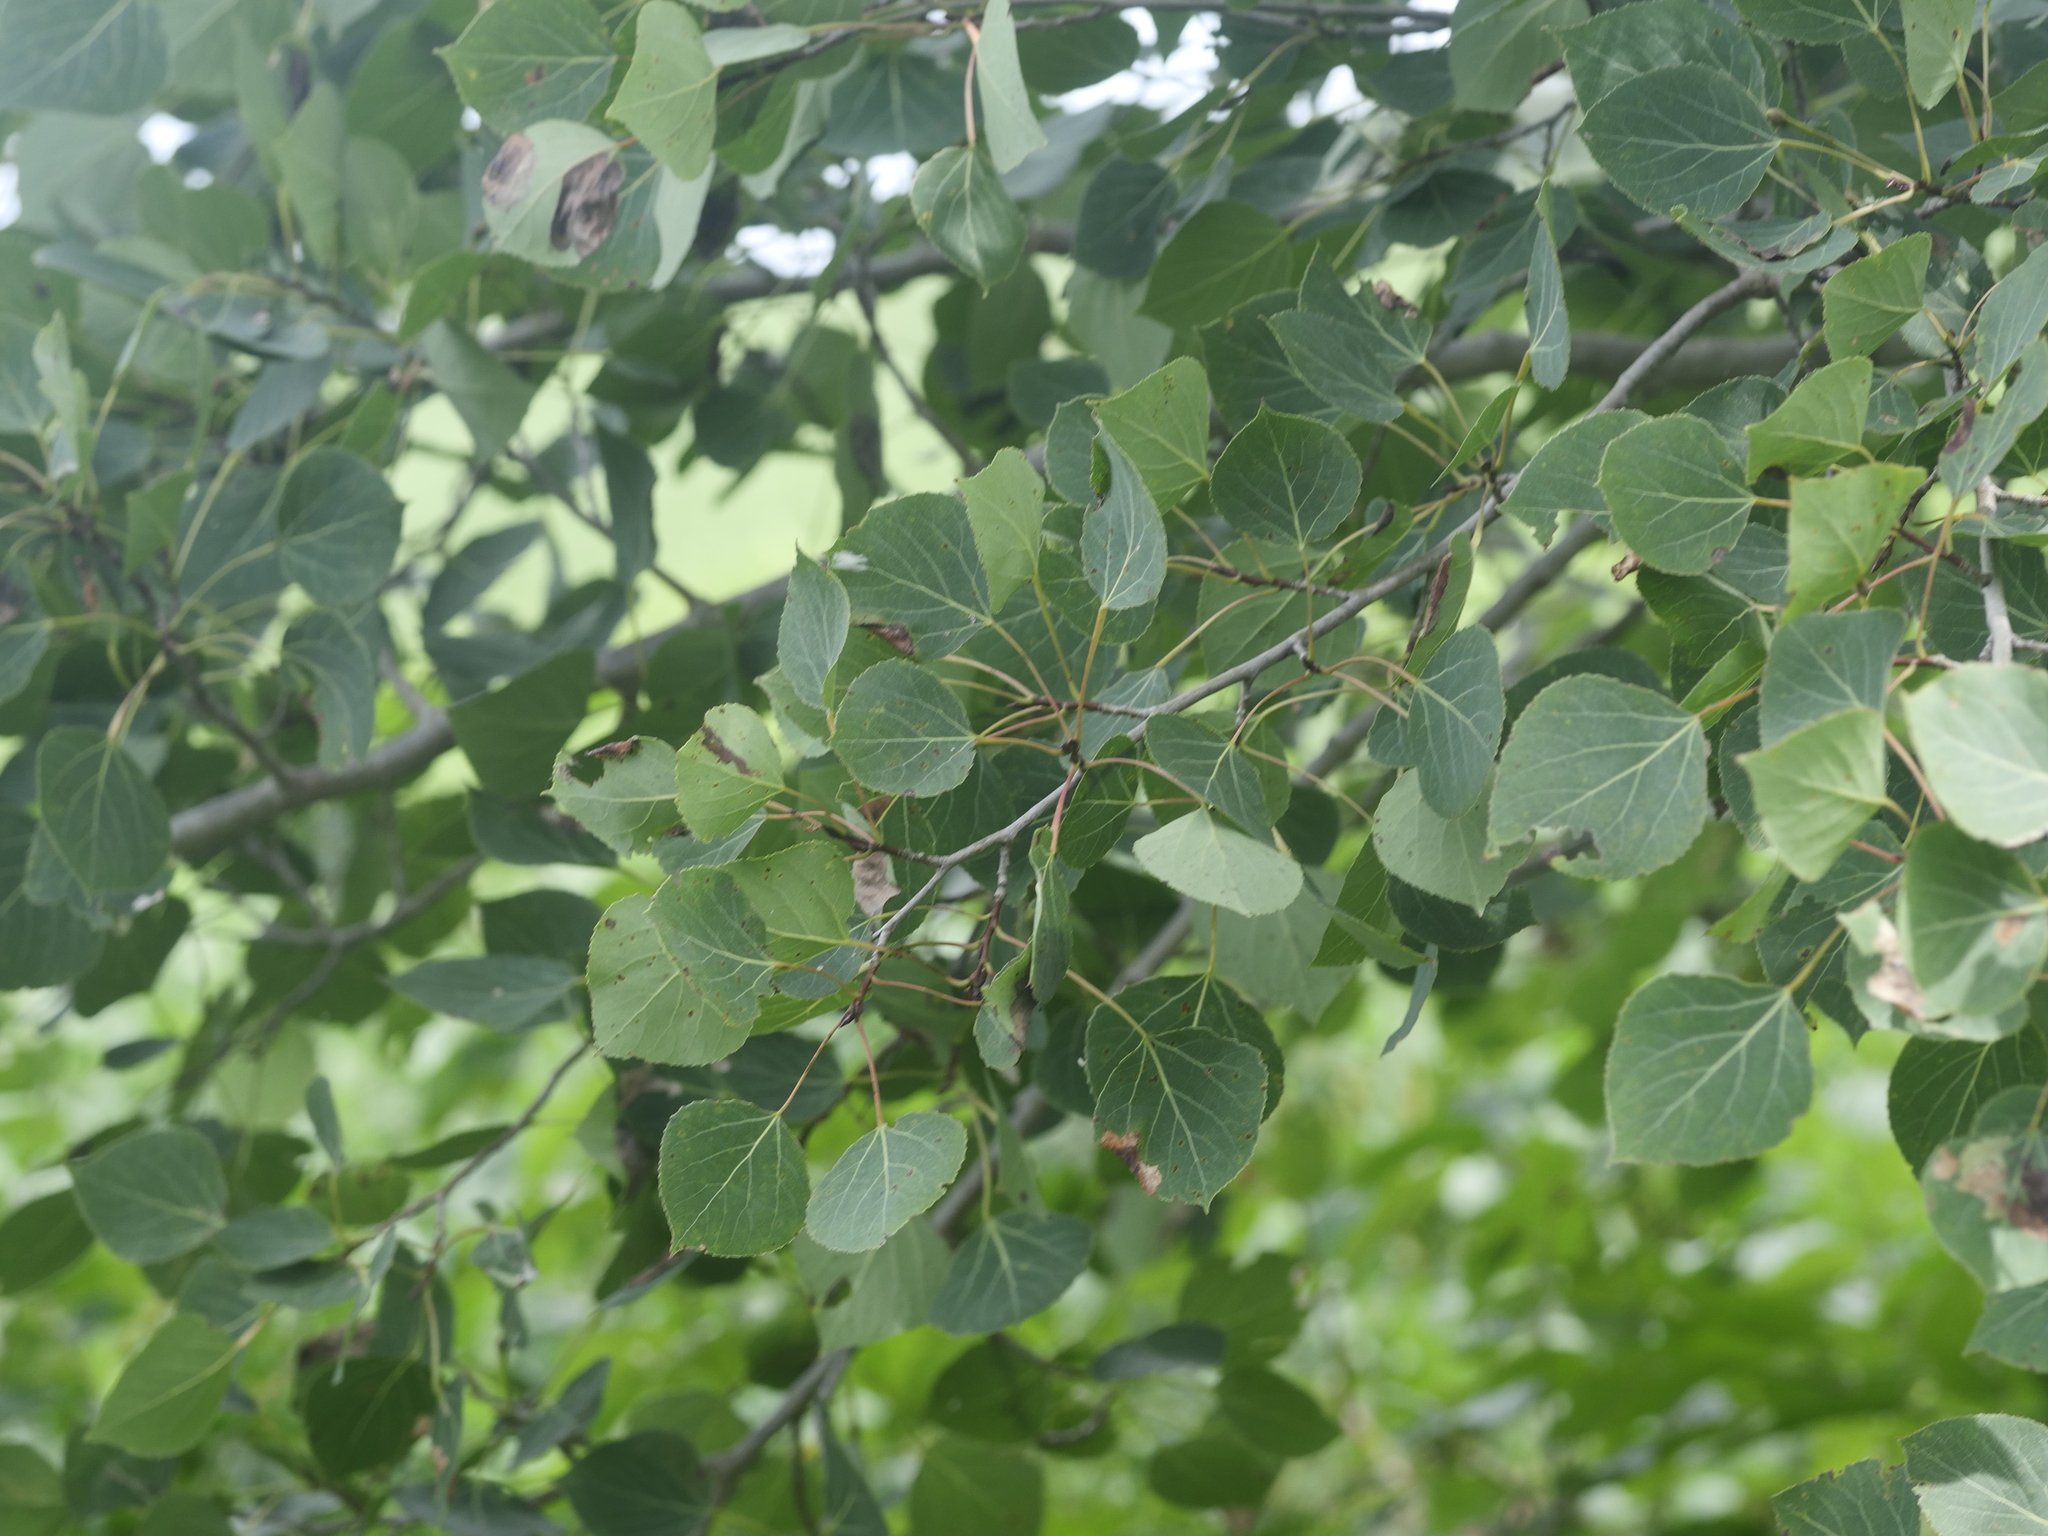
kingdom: Plantae
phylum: Tracheophyta
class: Magnoliopsida
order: Malpighiales
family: Salicaceae
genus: Populus
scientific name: Populus tremuloides
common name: Quaking aspen
